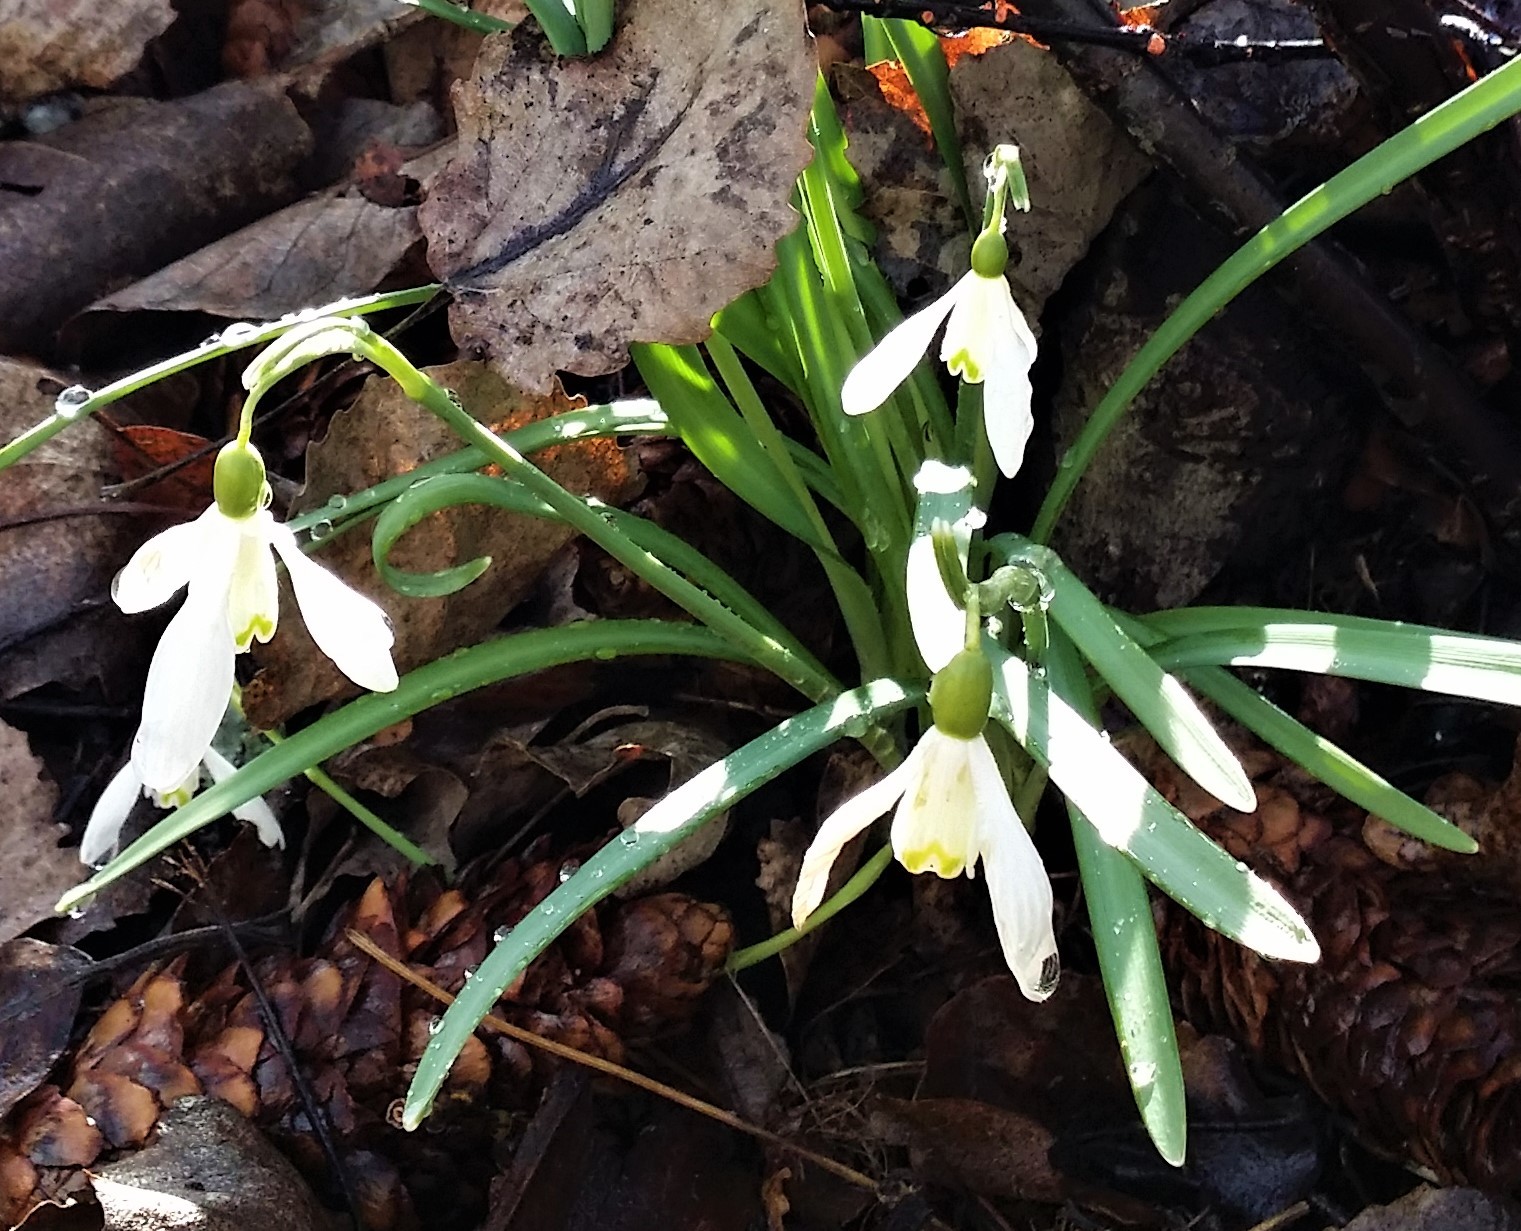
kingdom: Plantae
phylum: Tracheophyta
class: Liliopsida
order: Asparagales
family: Amaryllidaceae
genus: Galanthus
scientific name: Galanthus nivalis
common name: Snowdrop
